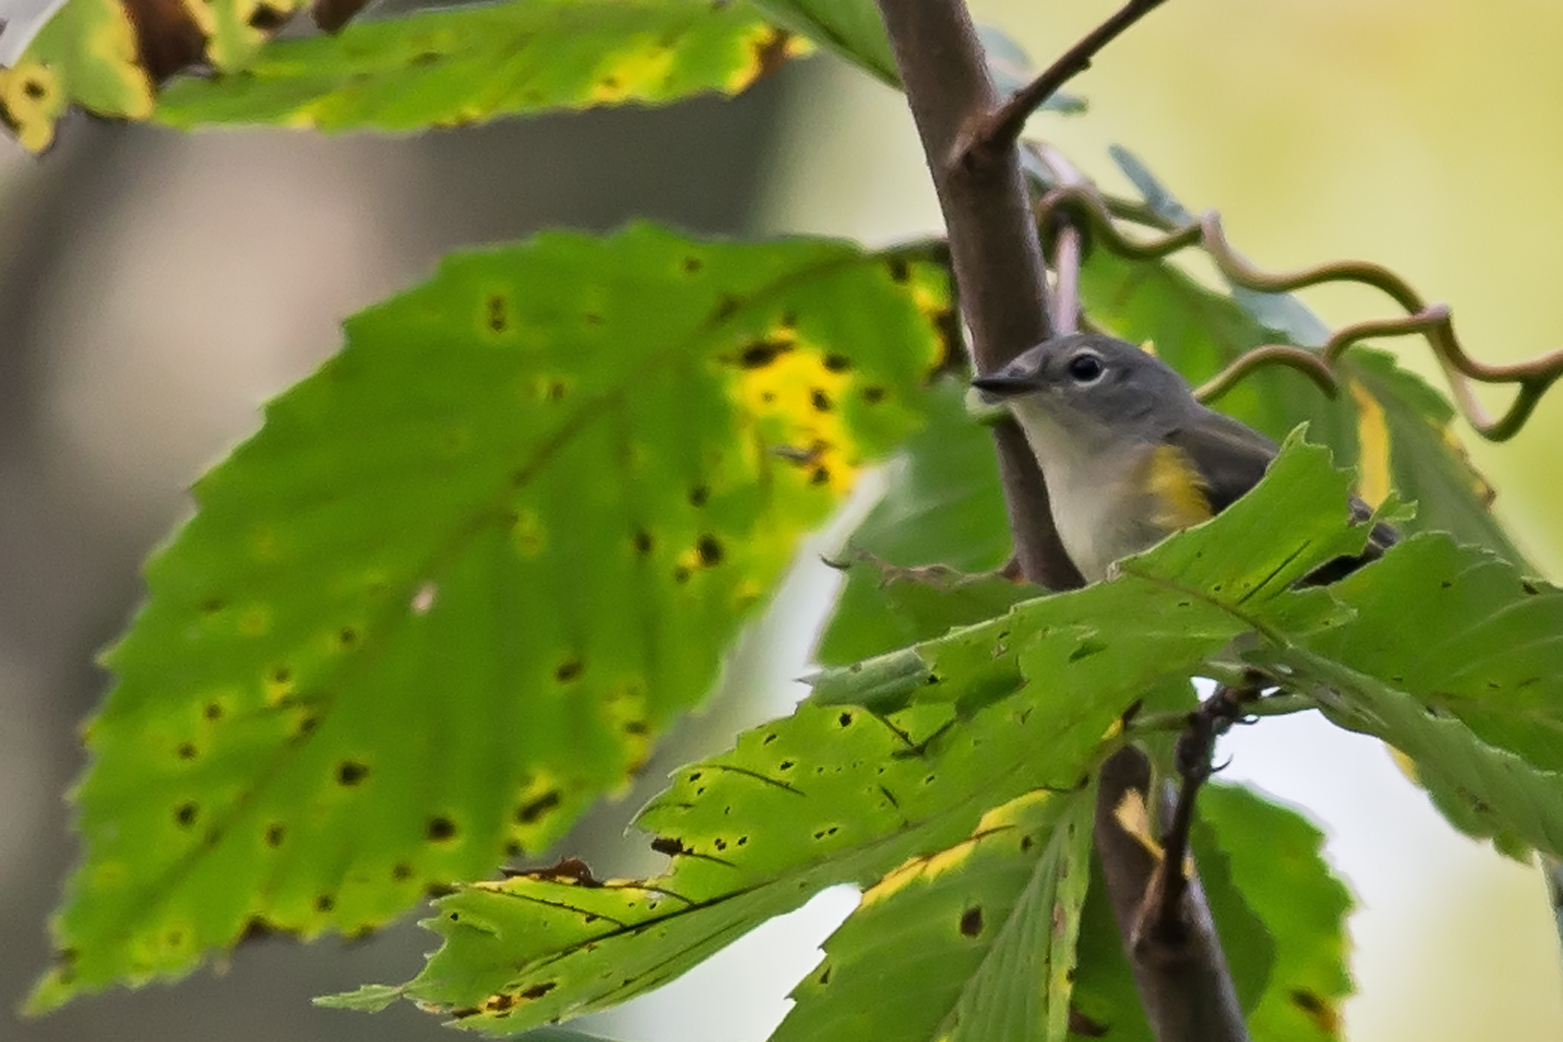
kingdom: Animalia
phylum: Chordata
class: Aves
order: Passeriformes
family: Parulidae
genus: Setophaga
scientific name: Setophaga ruticilla
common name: American redstart
